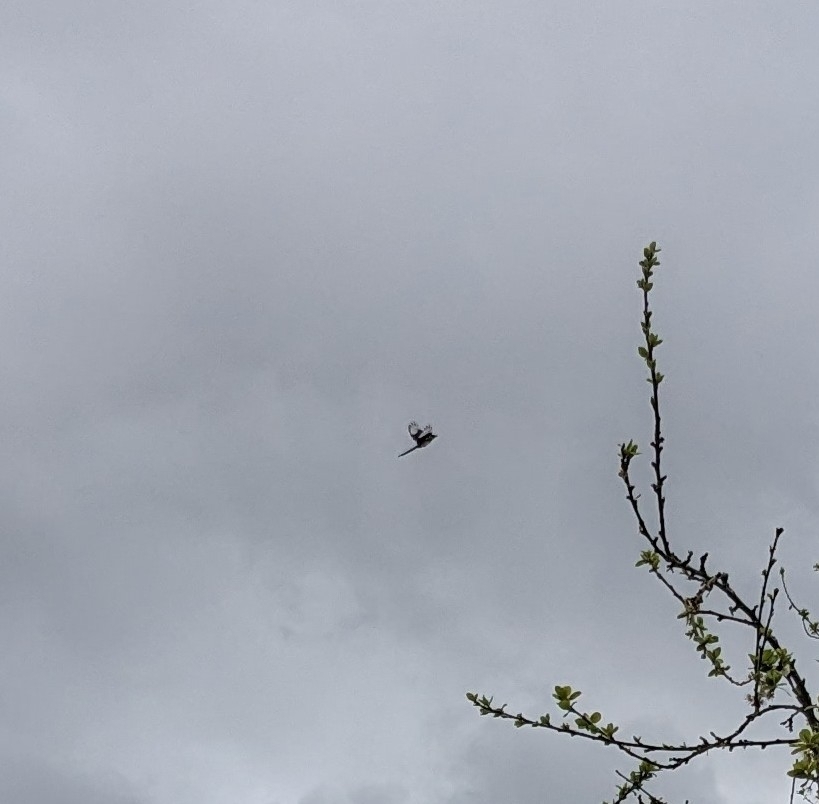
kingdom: Animalia
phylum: Chordata
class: Aves
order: Passeriformes
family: Corvidae
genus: Pica
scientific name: Pica pica
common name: Eurasian magpie
